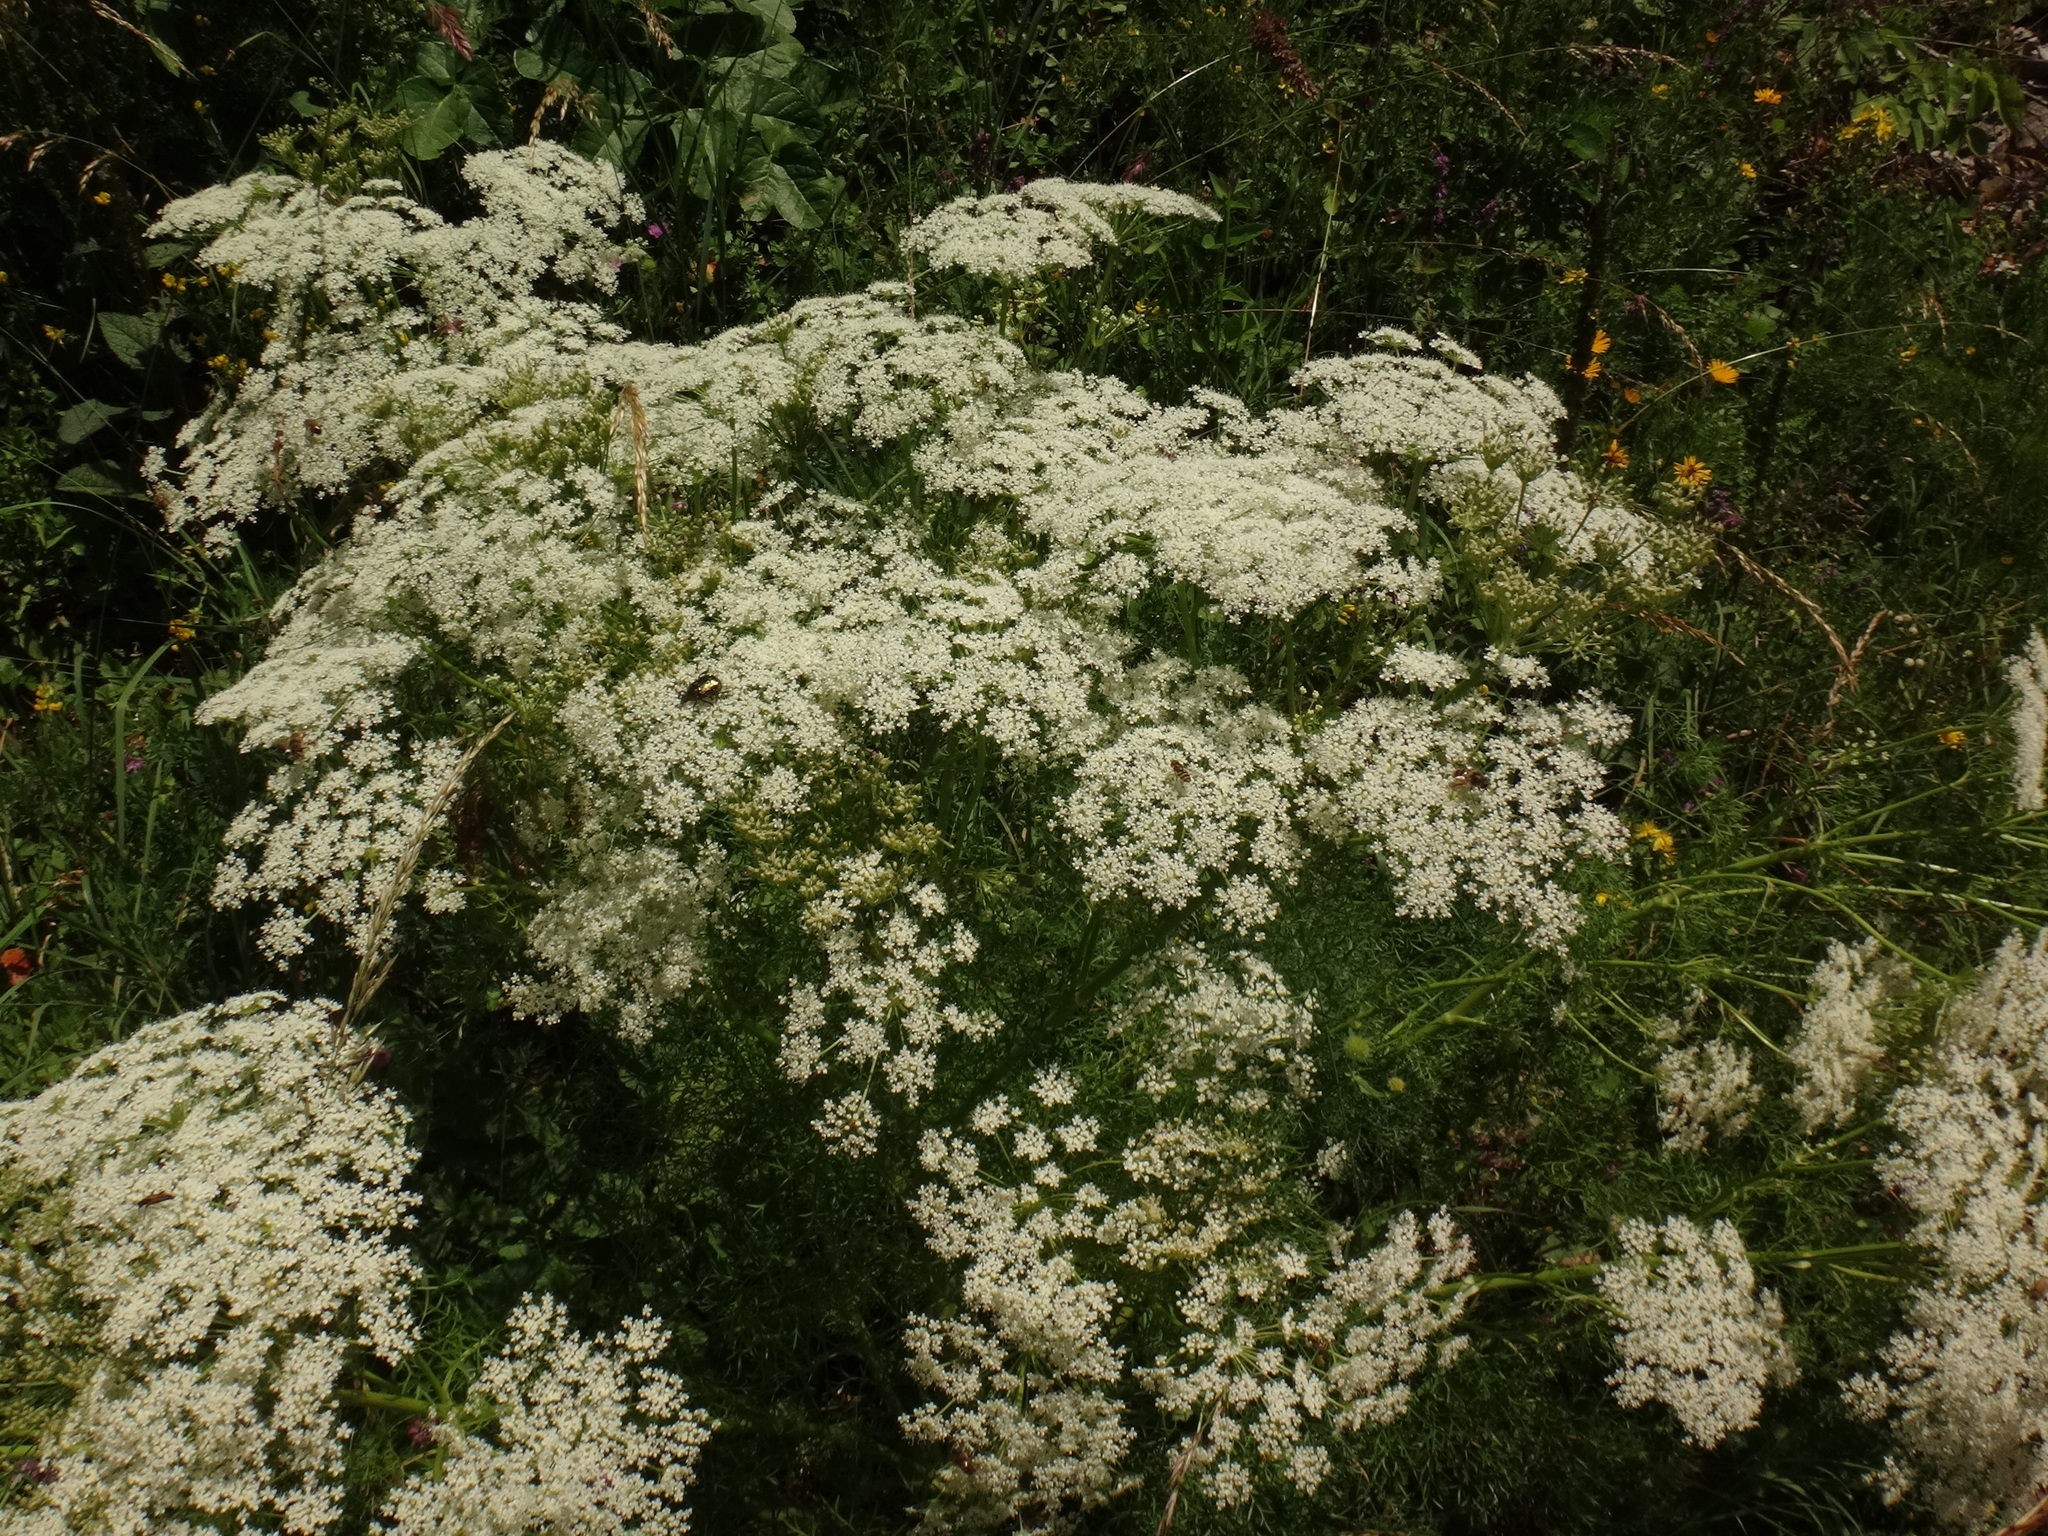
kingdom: Plantae
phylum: Tracheophyta
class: Magnoliopsida
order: Apiales
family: Apiaceae
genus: Coristospermum
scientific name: Coristospermum lucidum
